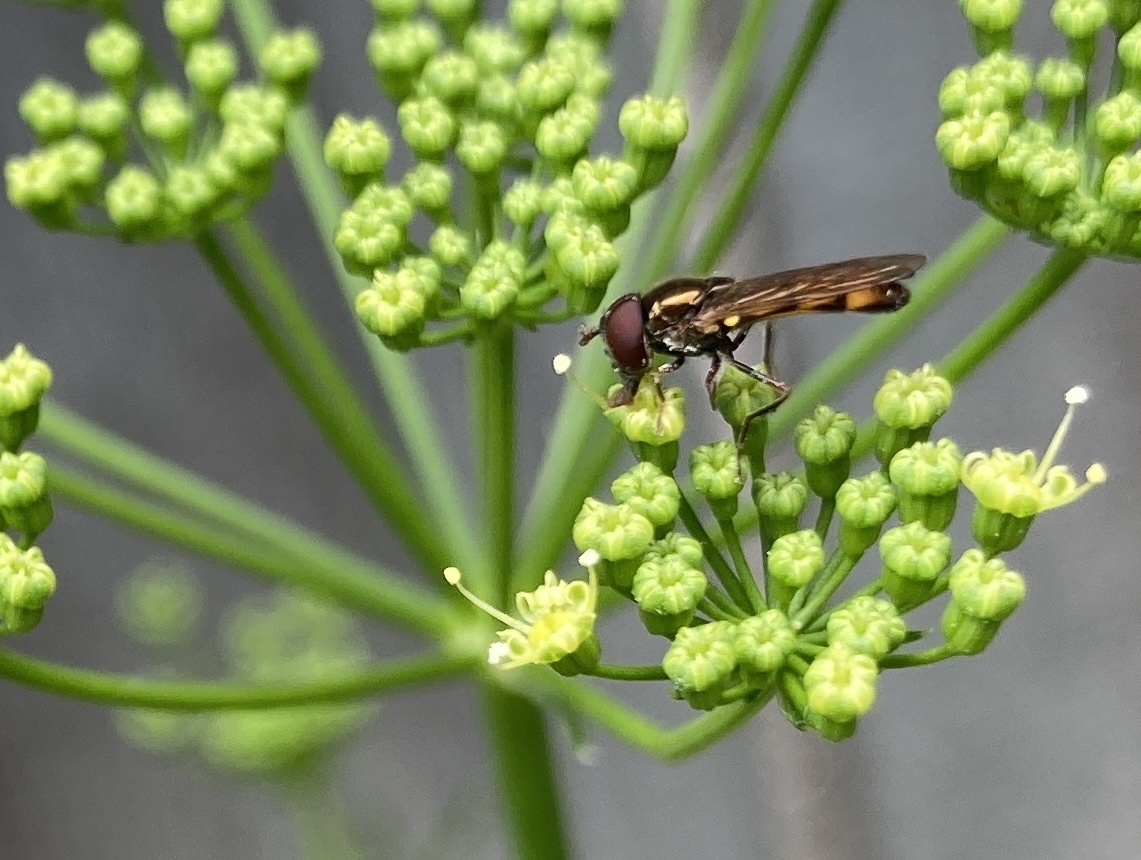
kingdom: Animalia
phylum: Arthropoda
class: Insecta
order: Diptera
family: Syrphidae
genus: Melanostoma
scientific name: Melanostoma fasciatum
